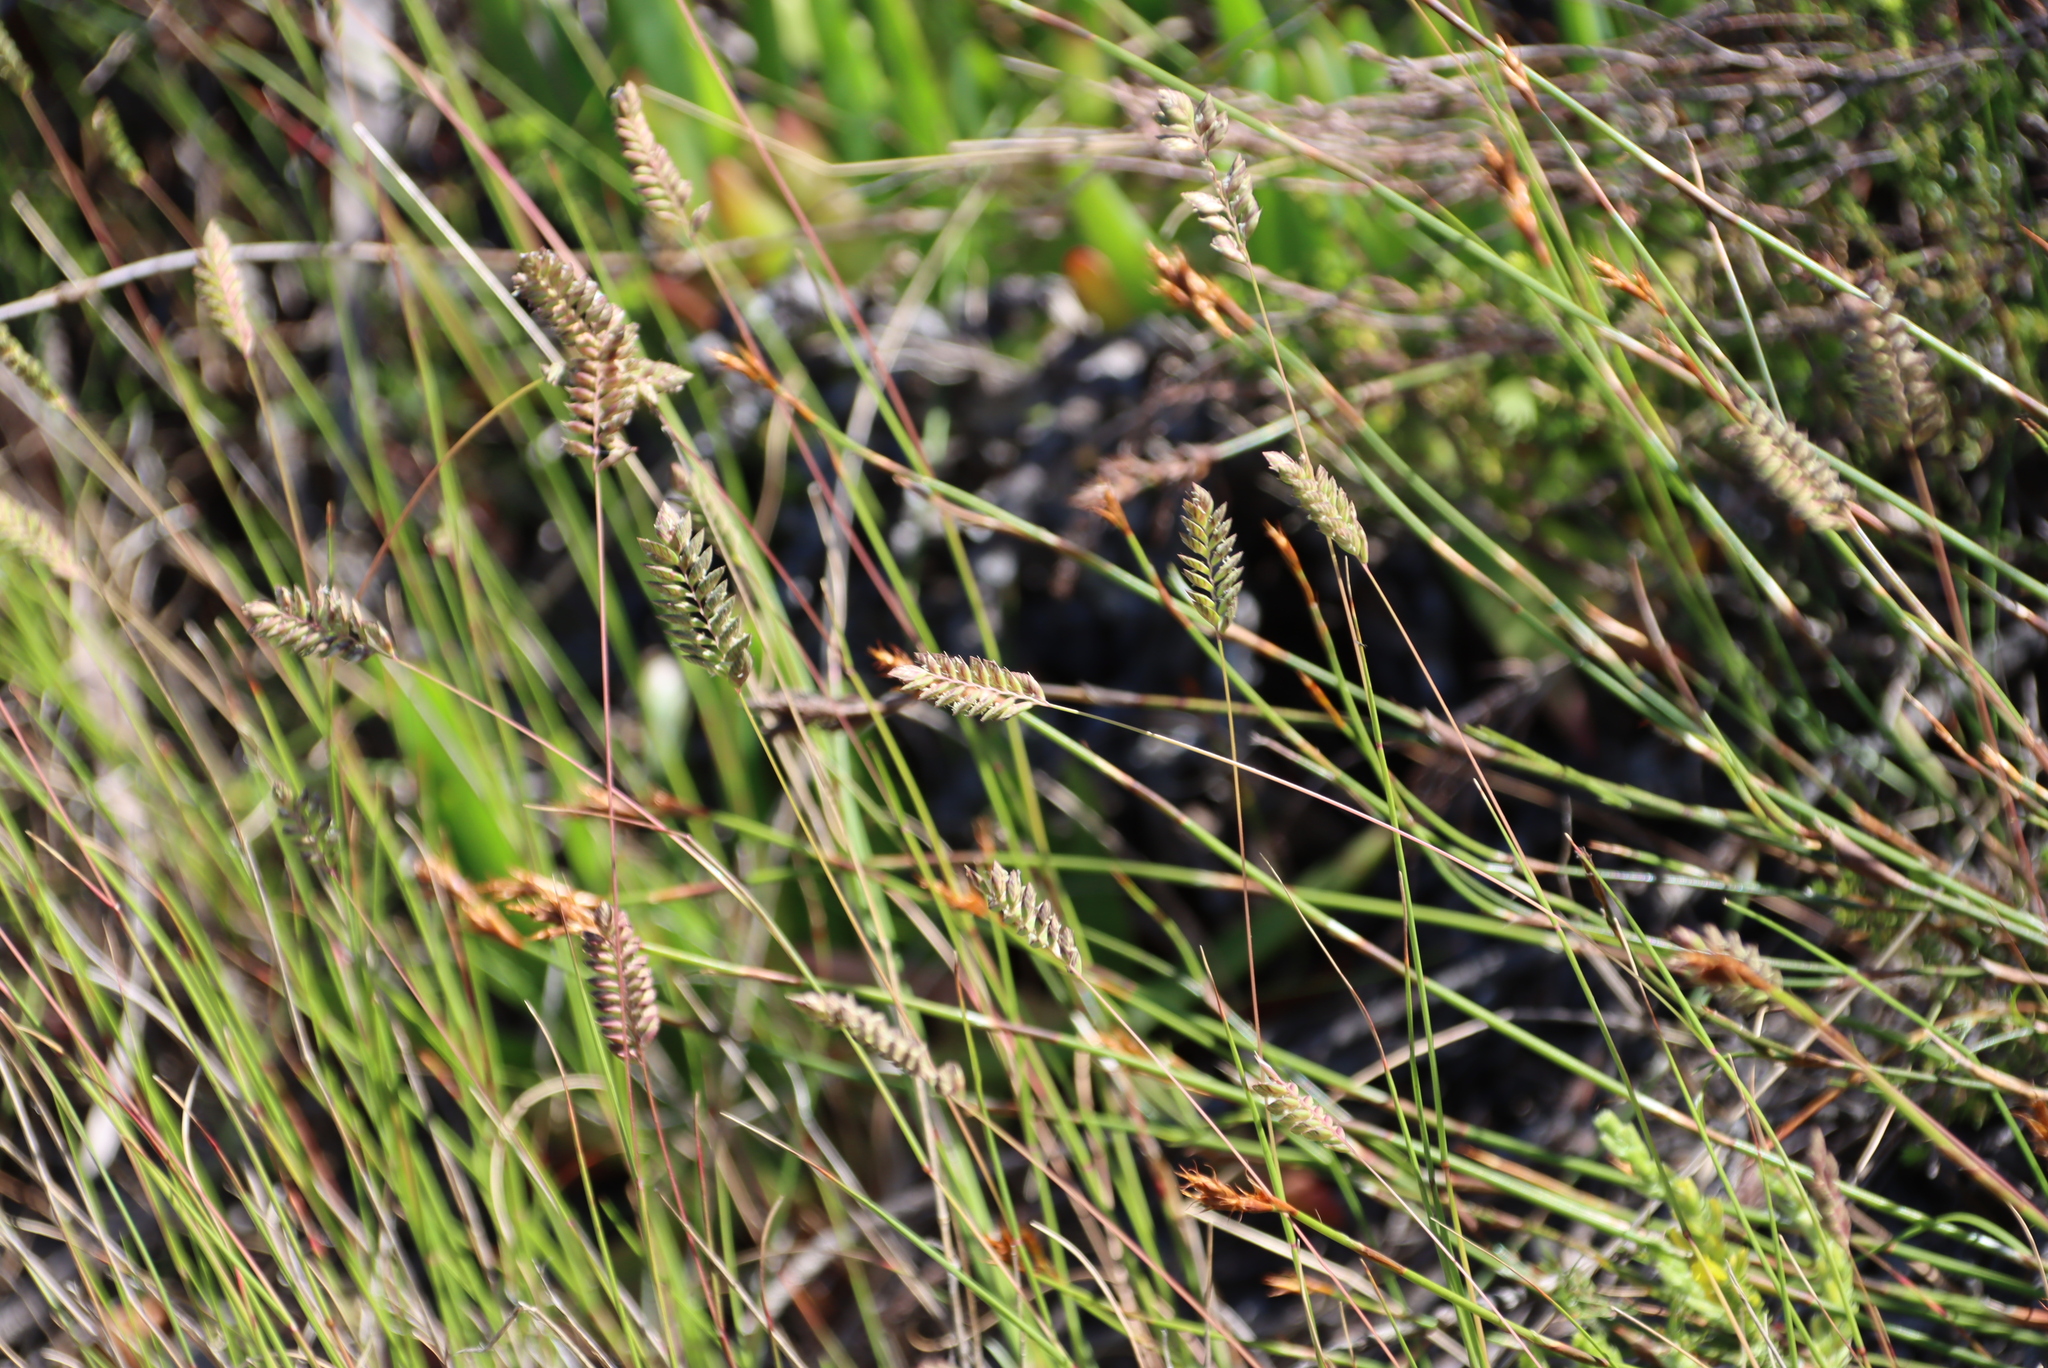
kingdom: Plantae
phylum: Tracheophyta
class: Liliopsida
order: Poales
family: Poaceae
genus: Tribolium
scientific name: Tribolium uniolae
